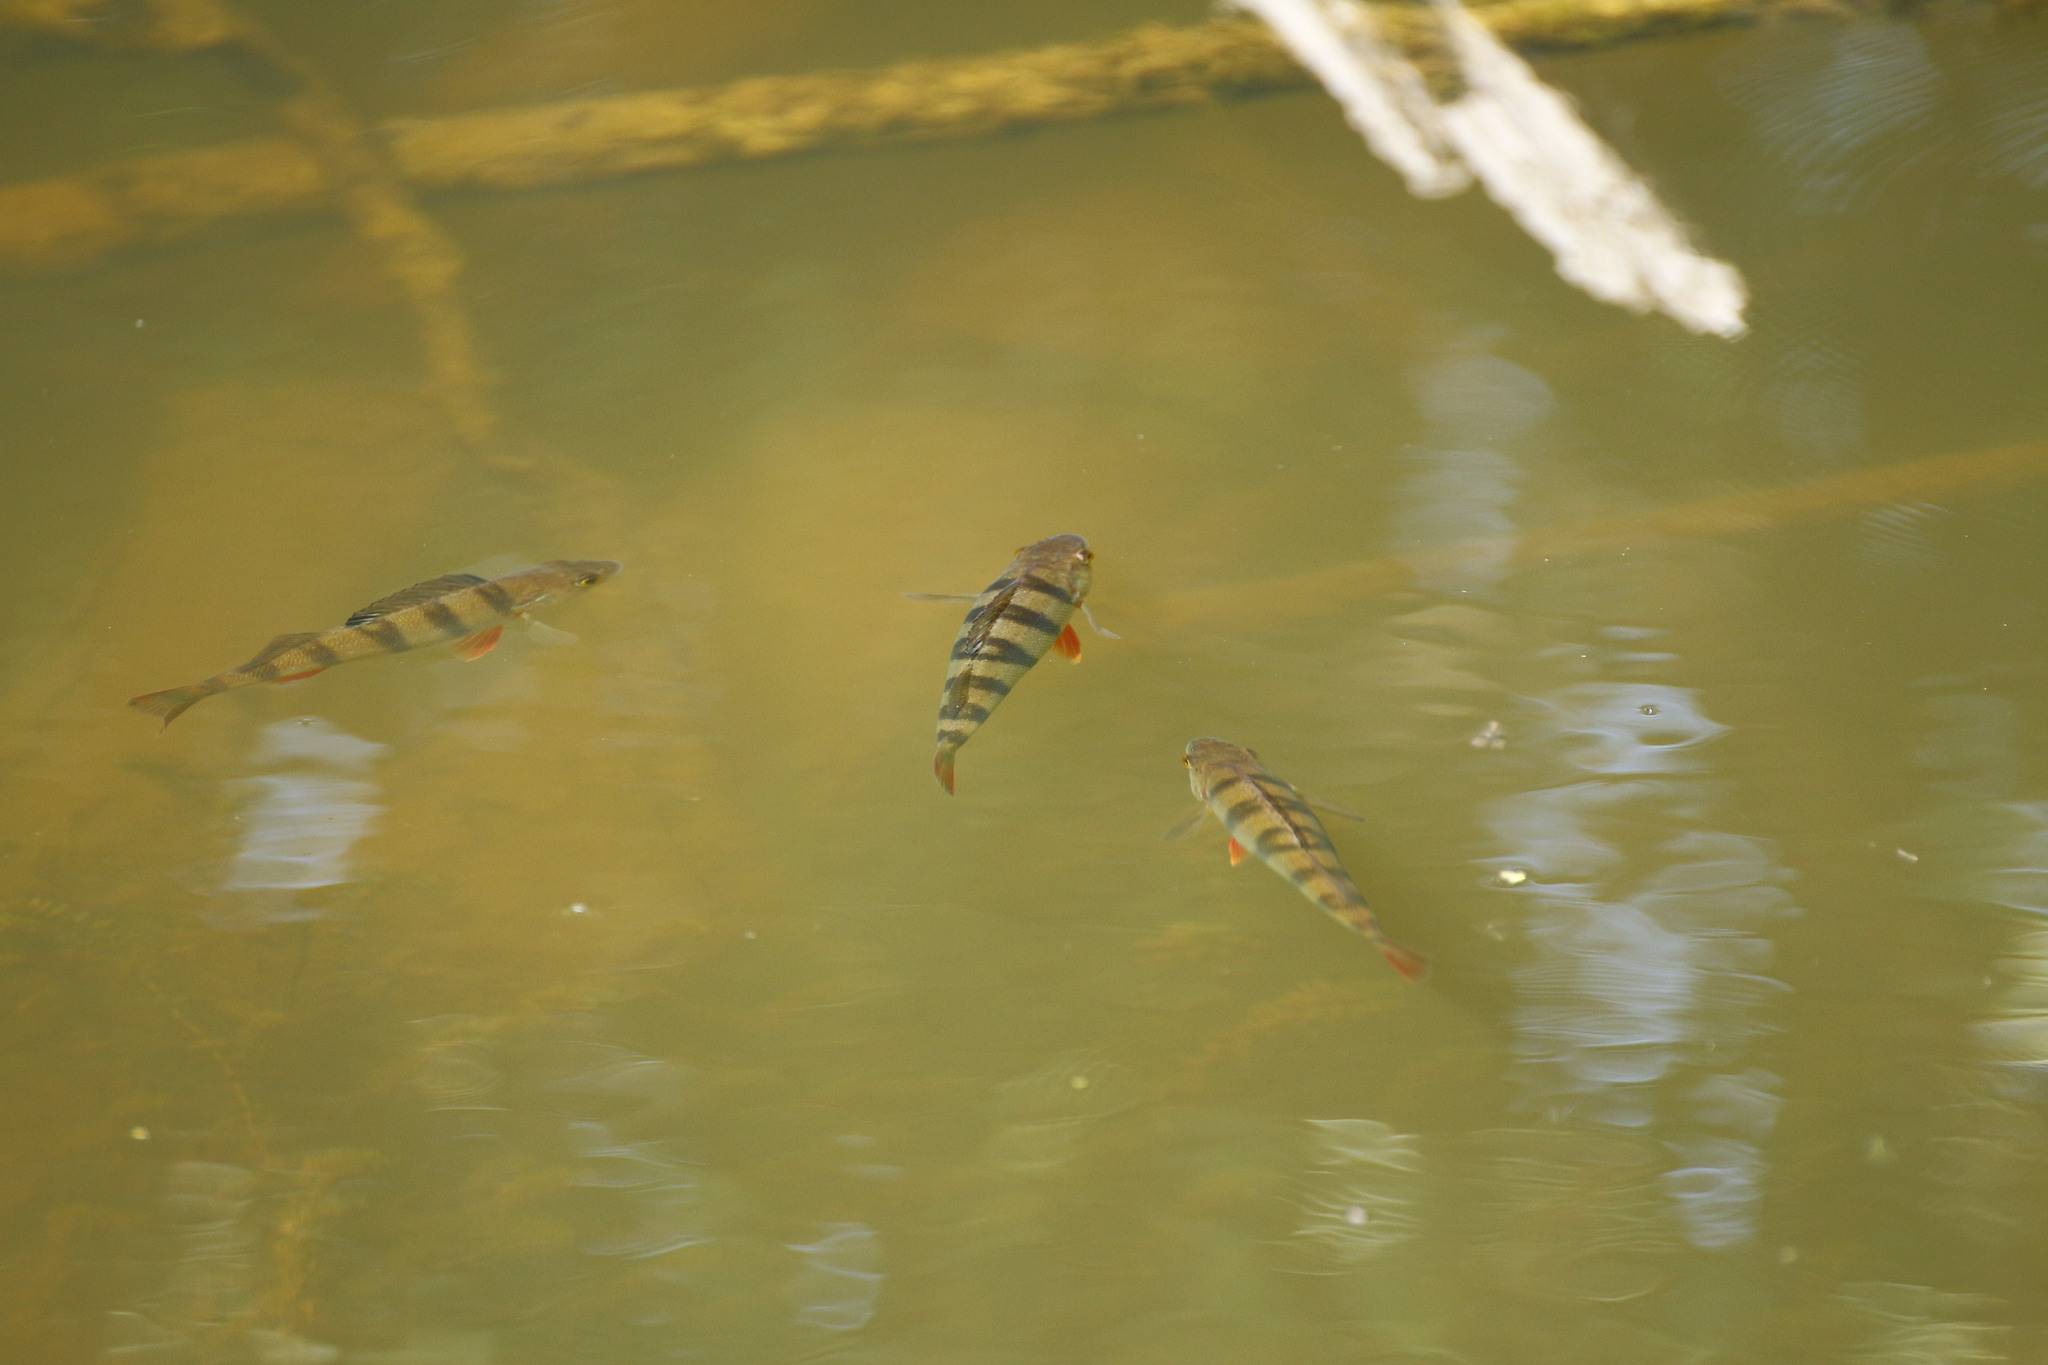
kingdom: Animalia
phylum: Chordata
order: Perciformes
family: Percidae
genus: Perca
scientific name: Perca fluviatilis
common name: Perch
